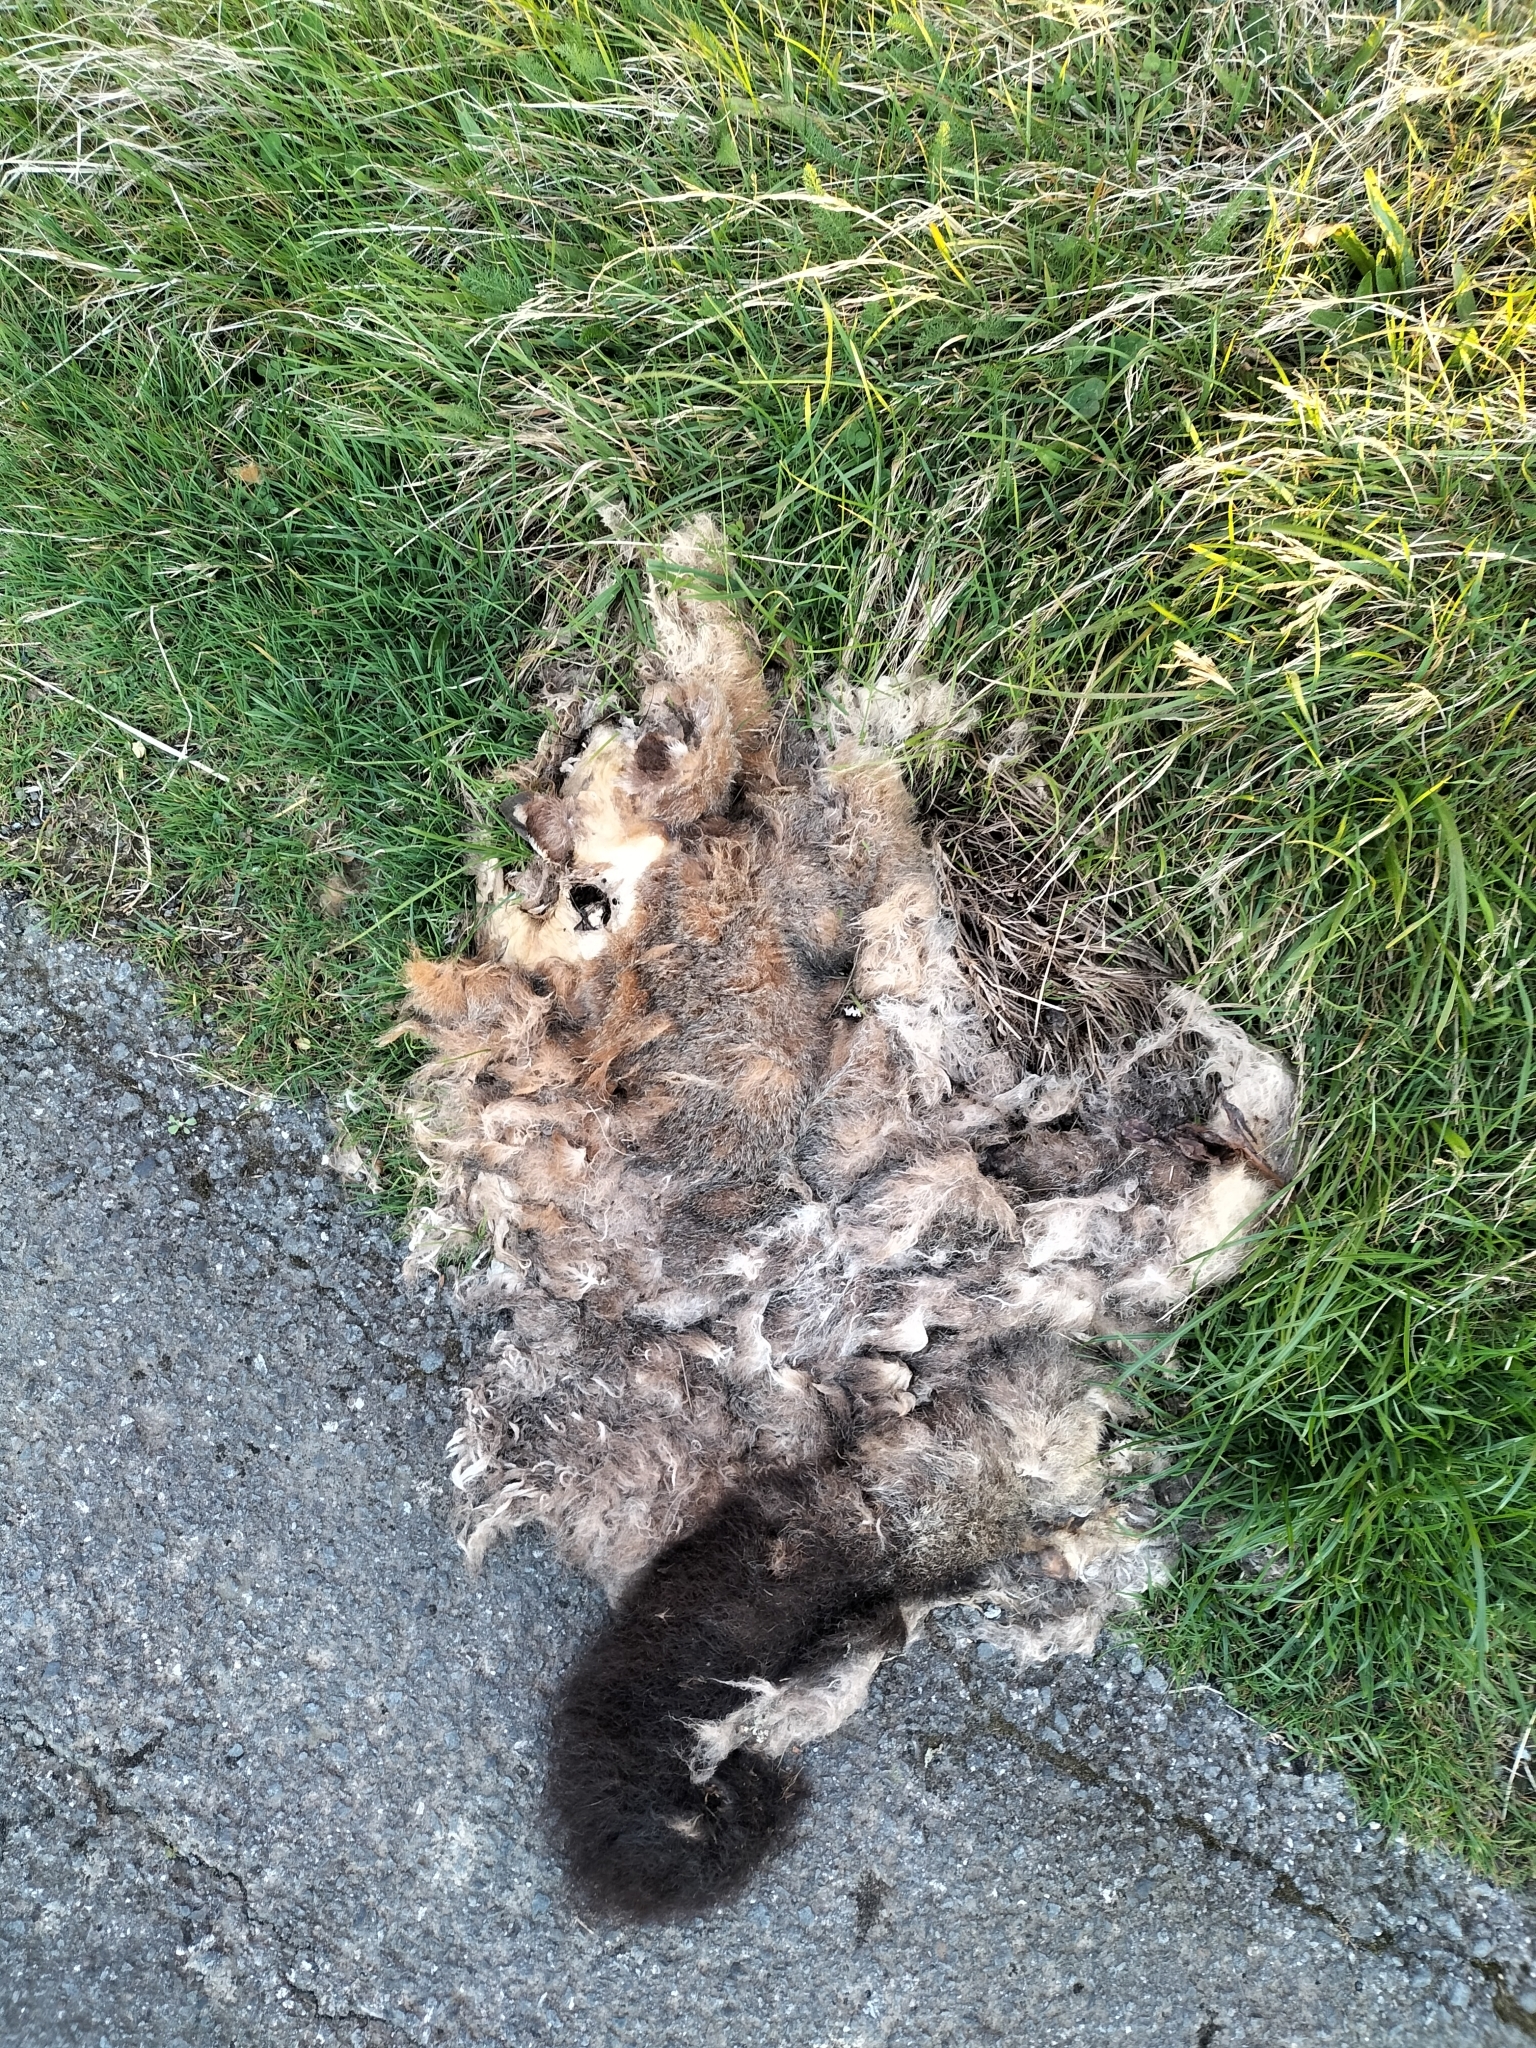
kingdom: Animalia
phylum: Chordata
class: Mammalia
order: Diprotodontia
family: Phalangeridae
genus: Trichosurus
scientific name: Trichosurus vulpecula
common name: Common brushtail
